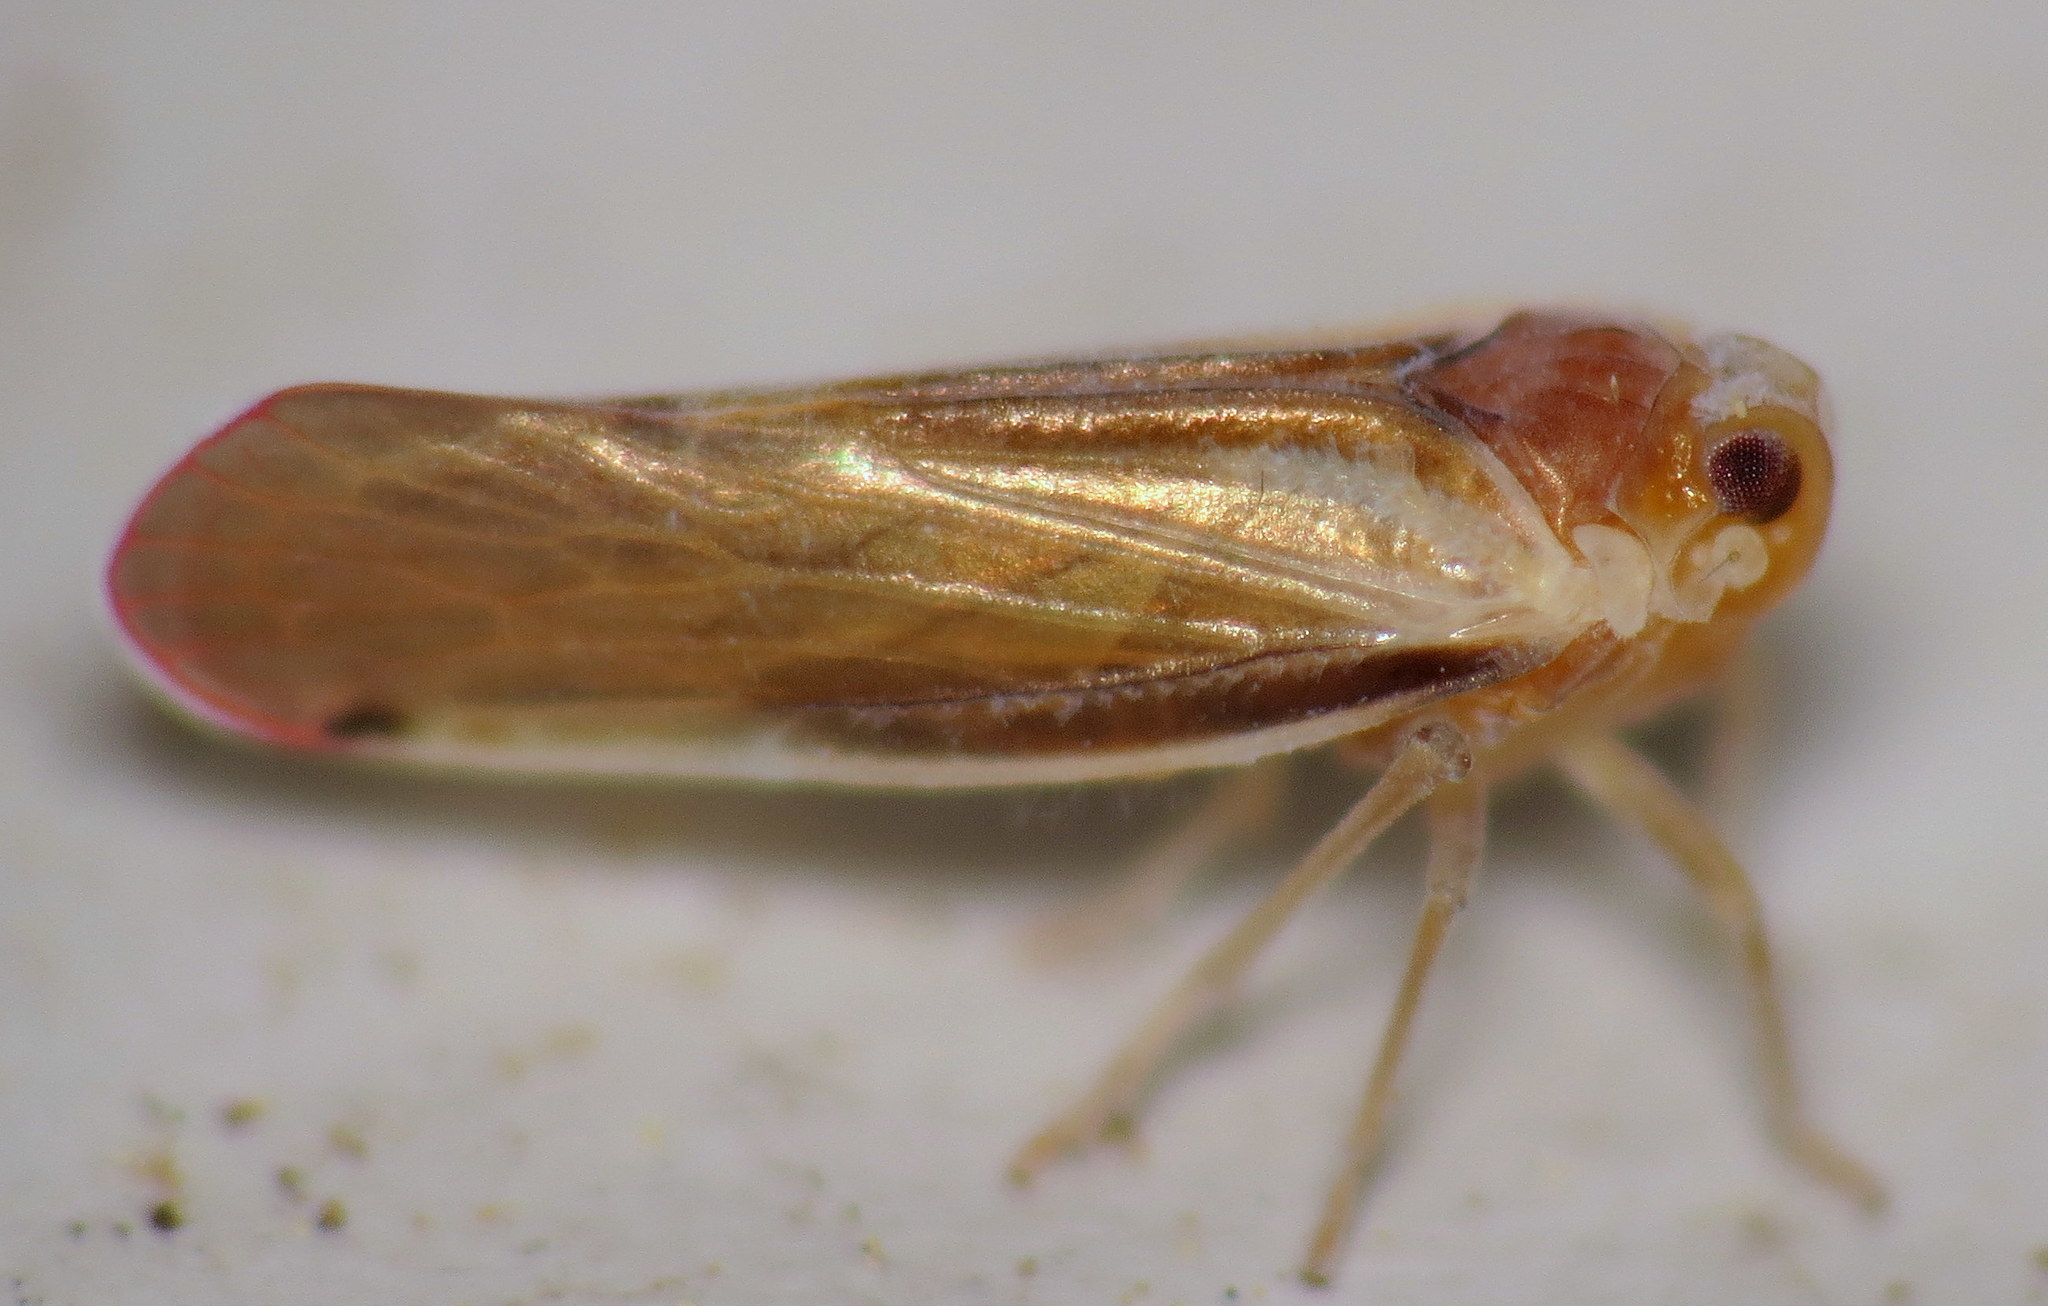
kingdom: Animalia
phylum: Arthropoda
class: Insecta
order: Hemiptera
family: Derbidae
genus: Omolicna
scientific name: Omolicna uhleri
